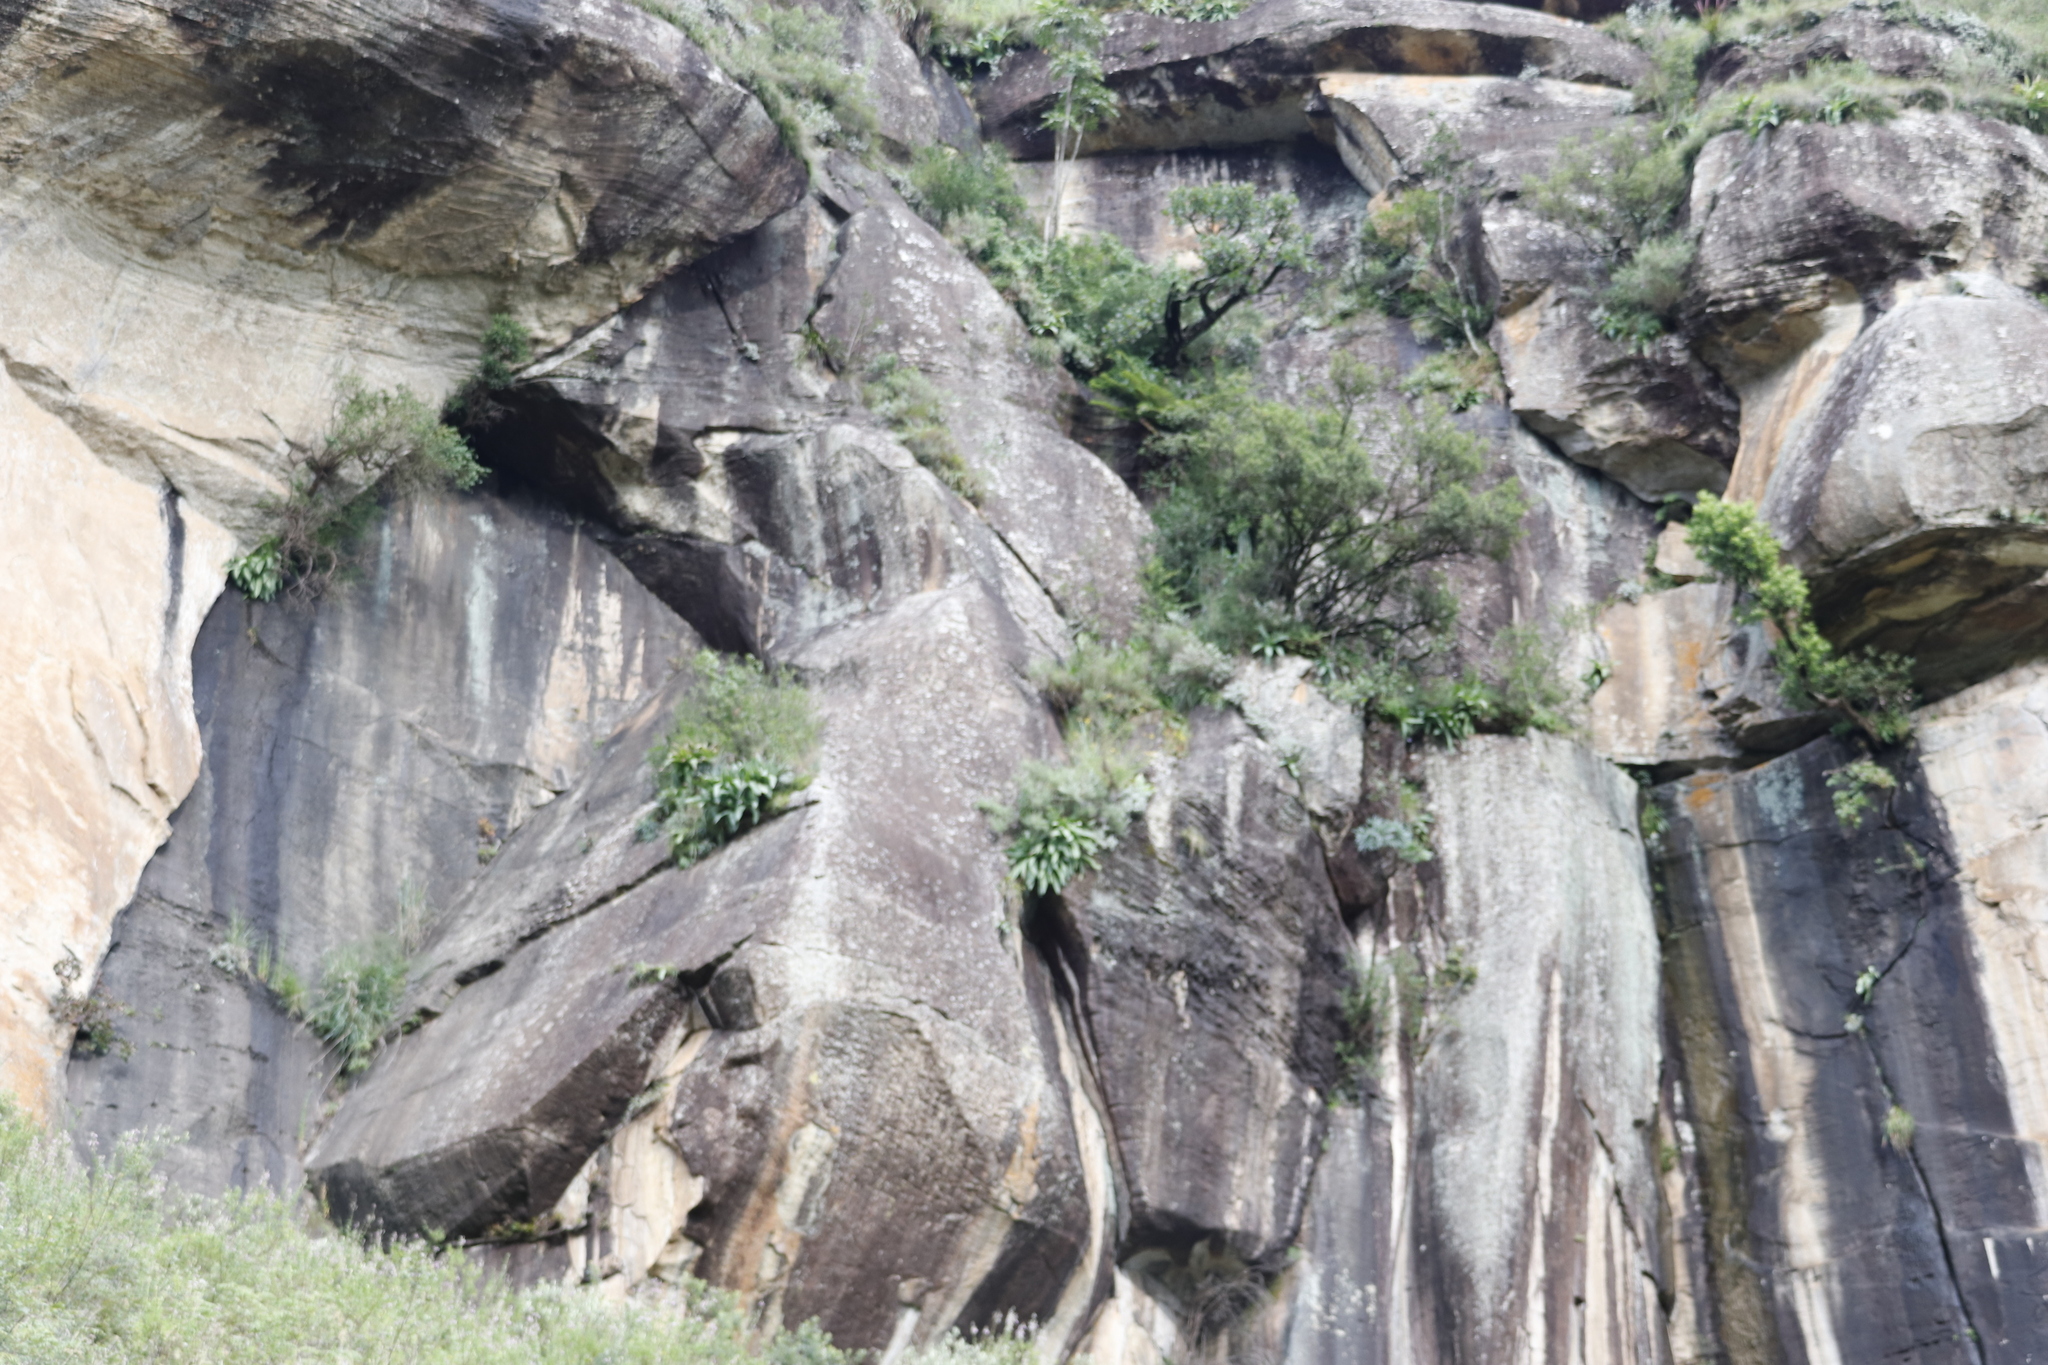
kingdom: Plantae
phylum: Tracheophyta
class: Liliopsida
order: Asparagales
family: Asparagaceae
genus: Merwilla
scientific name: Merwilla plumbea
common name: Blue-squill
